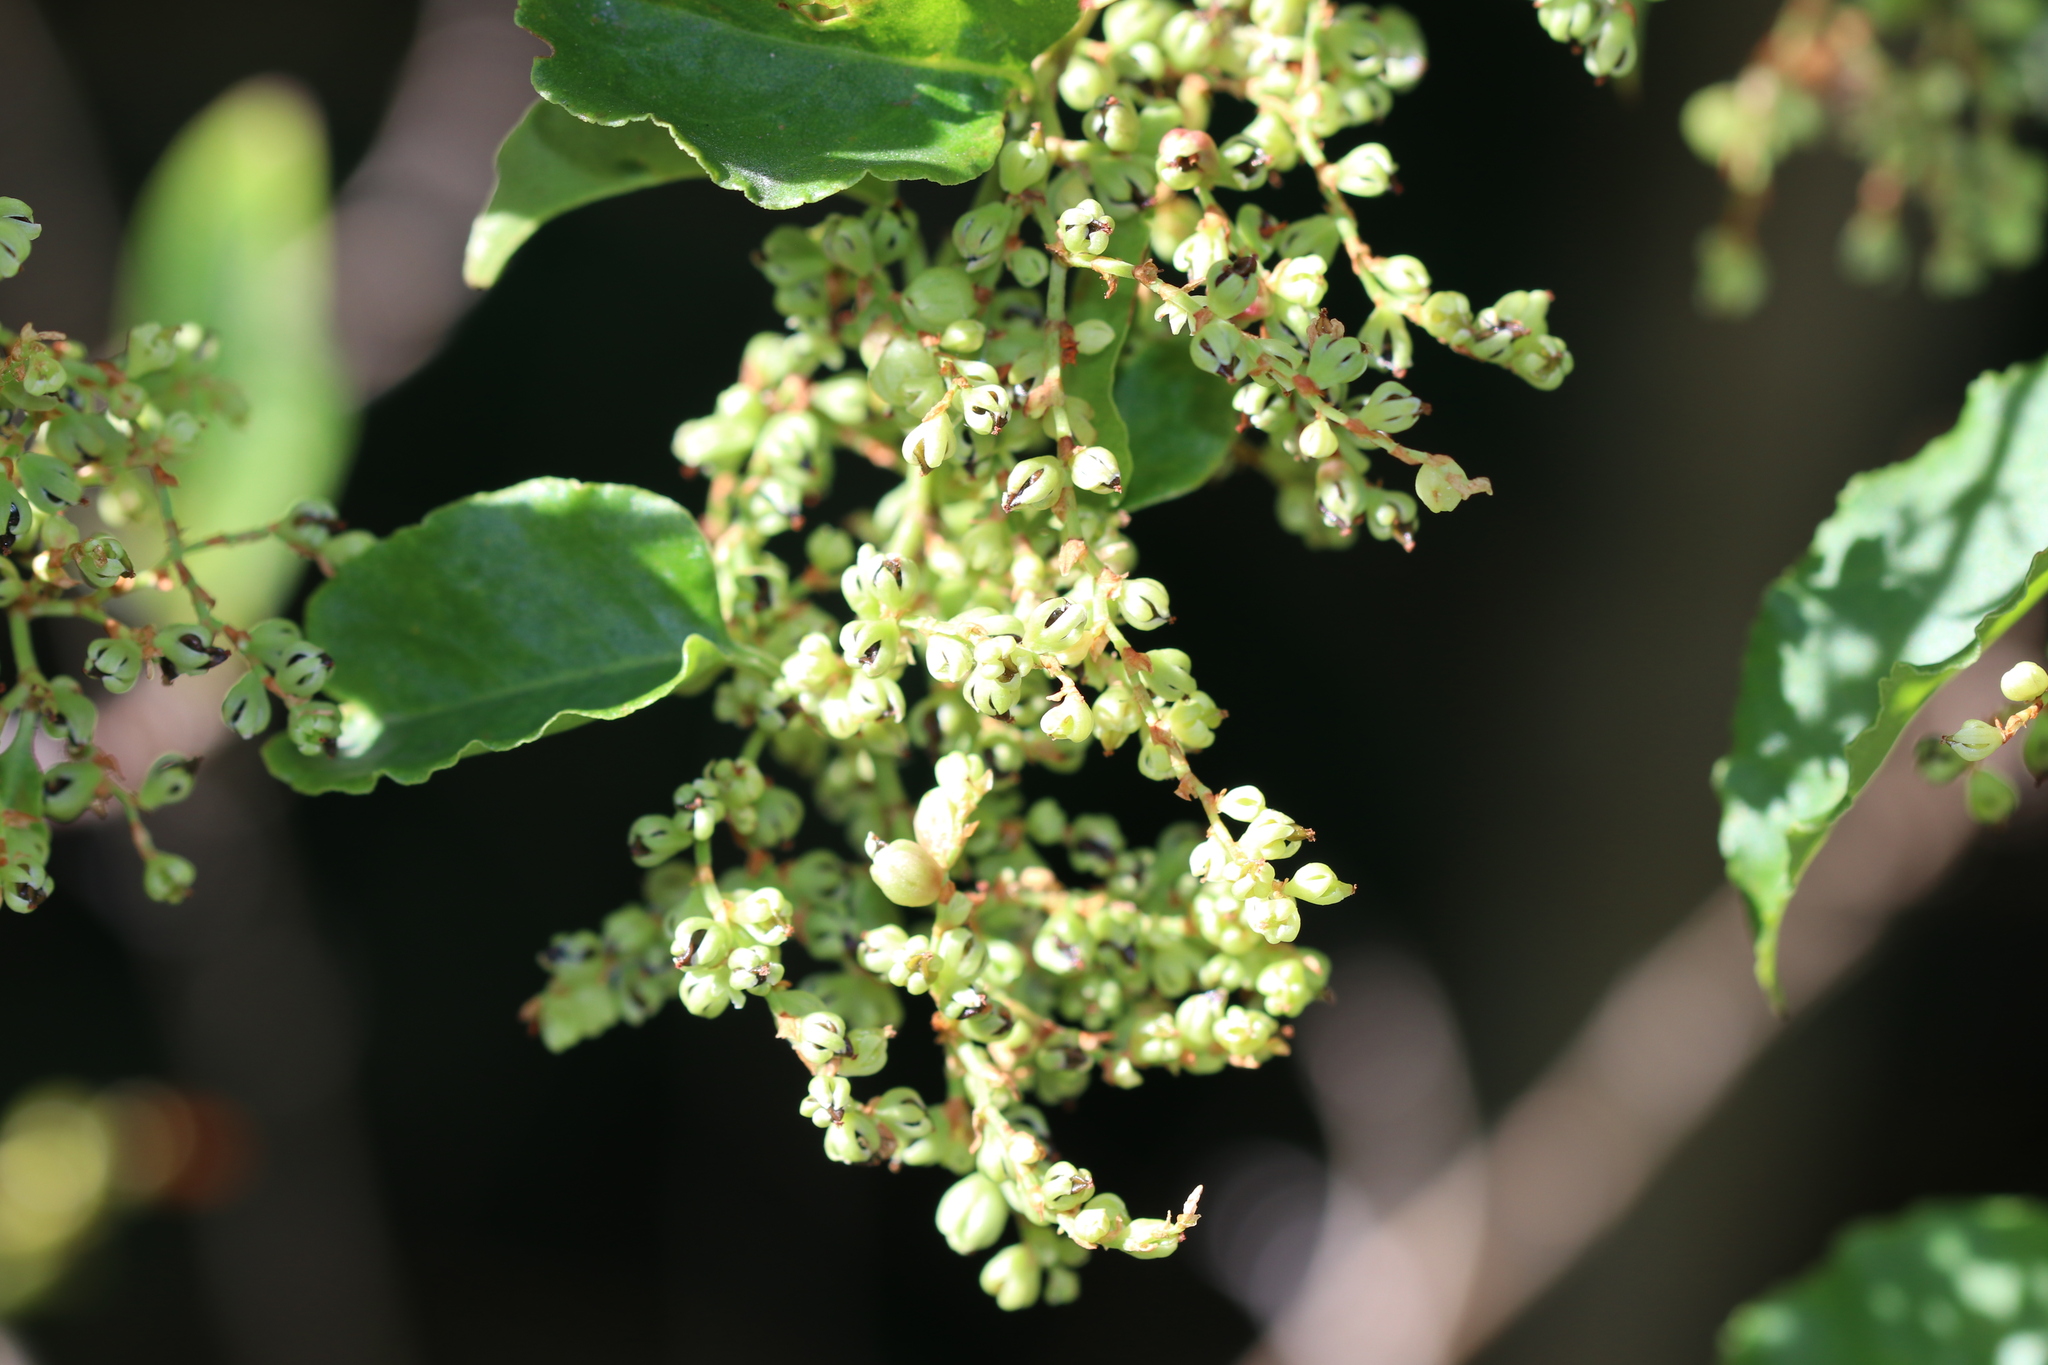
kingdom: Plantae
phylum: Tracheophyta
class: Magnoliopsida
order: Caryophyllales
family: Polygonaceae
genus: Muehlenbeckia
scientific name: Muehlenbeckia australis
